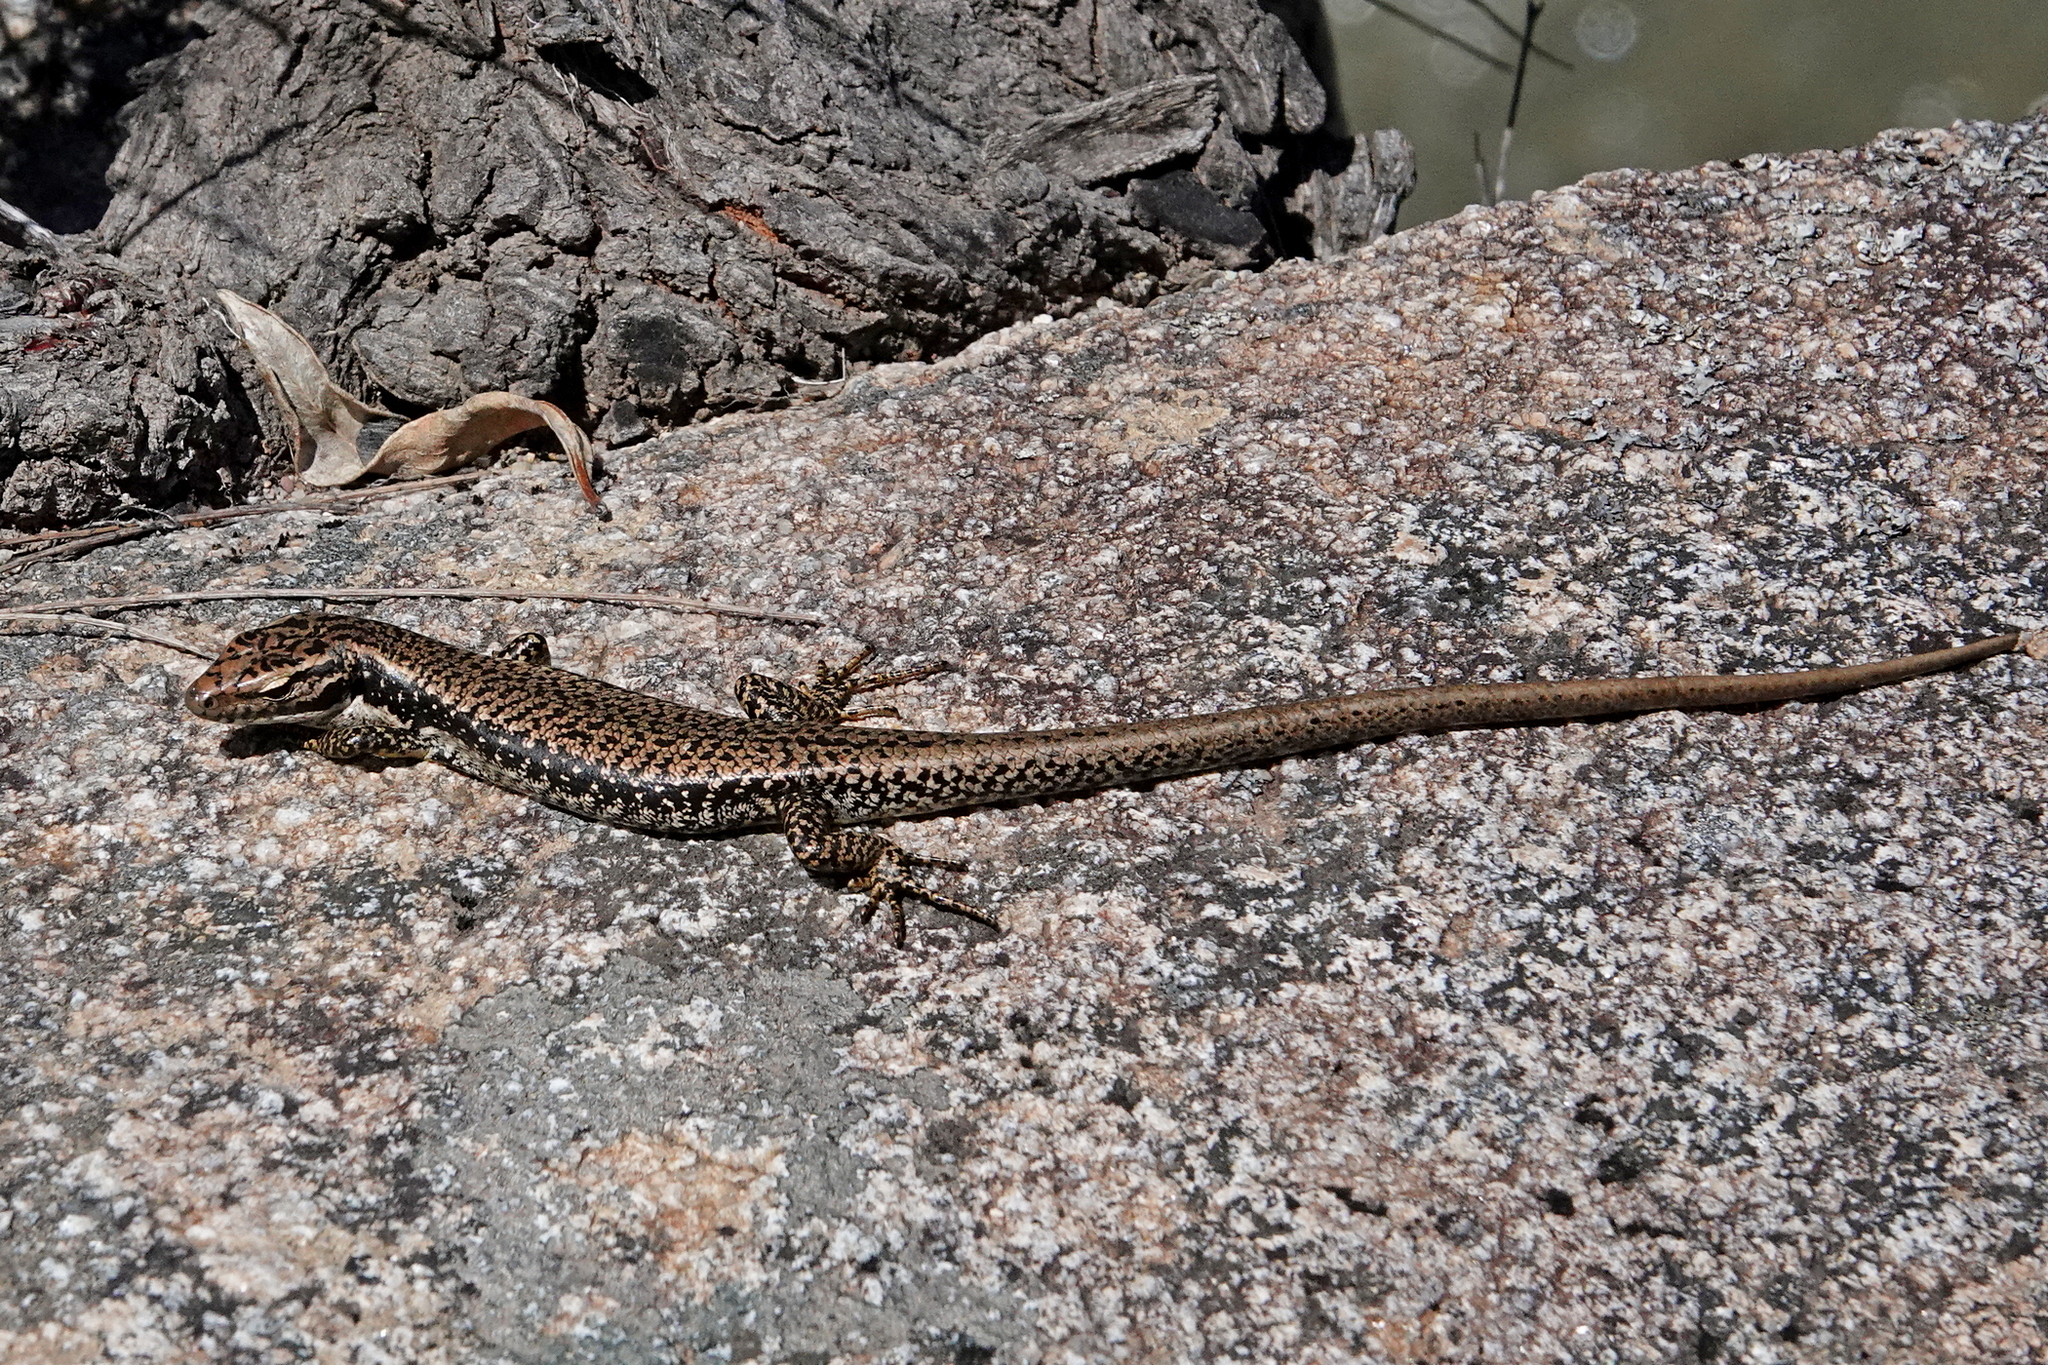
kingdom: Animalia
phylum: Chordata
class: Squamata
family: Scincidae
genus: Eulamprus
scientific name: Eulamprus heatwolei
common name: Warm-temperate water-skink
